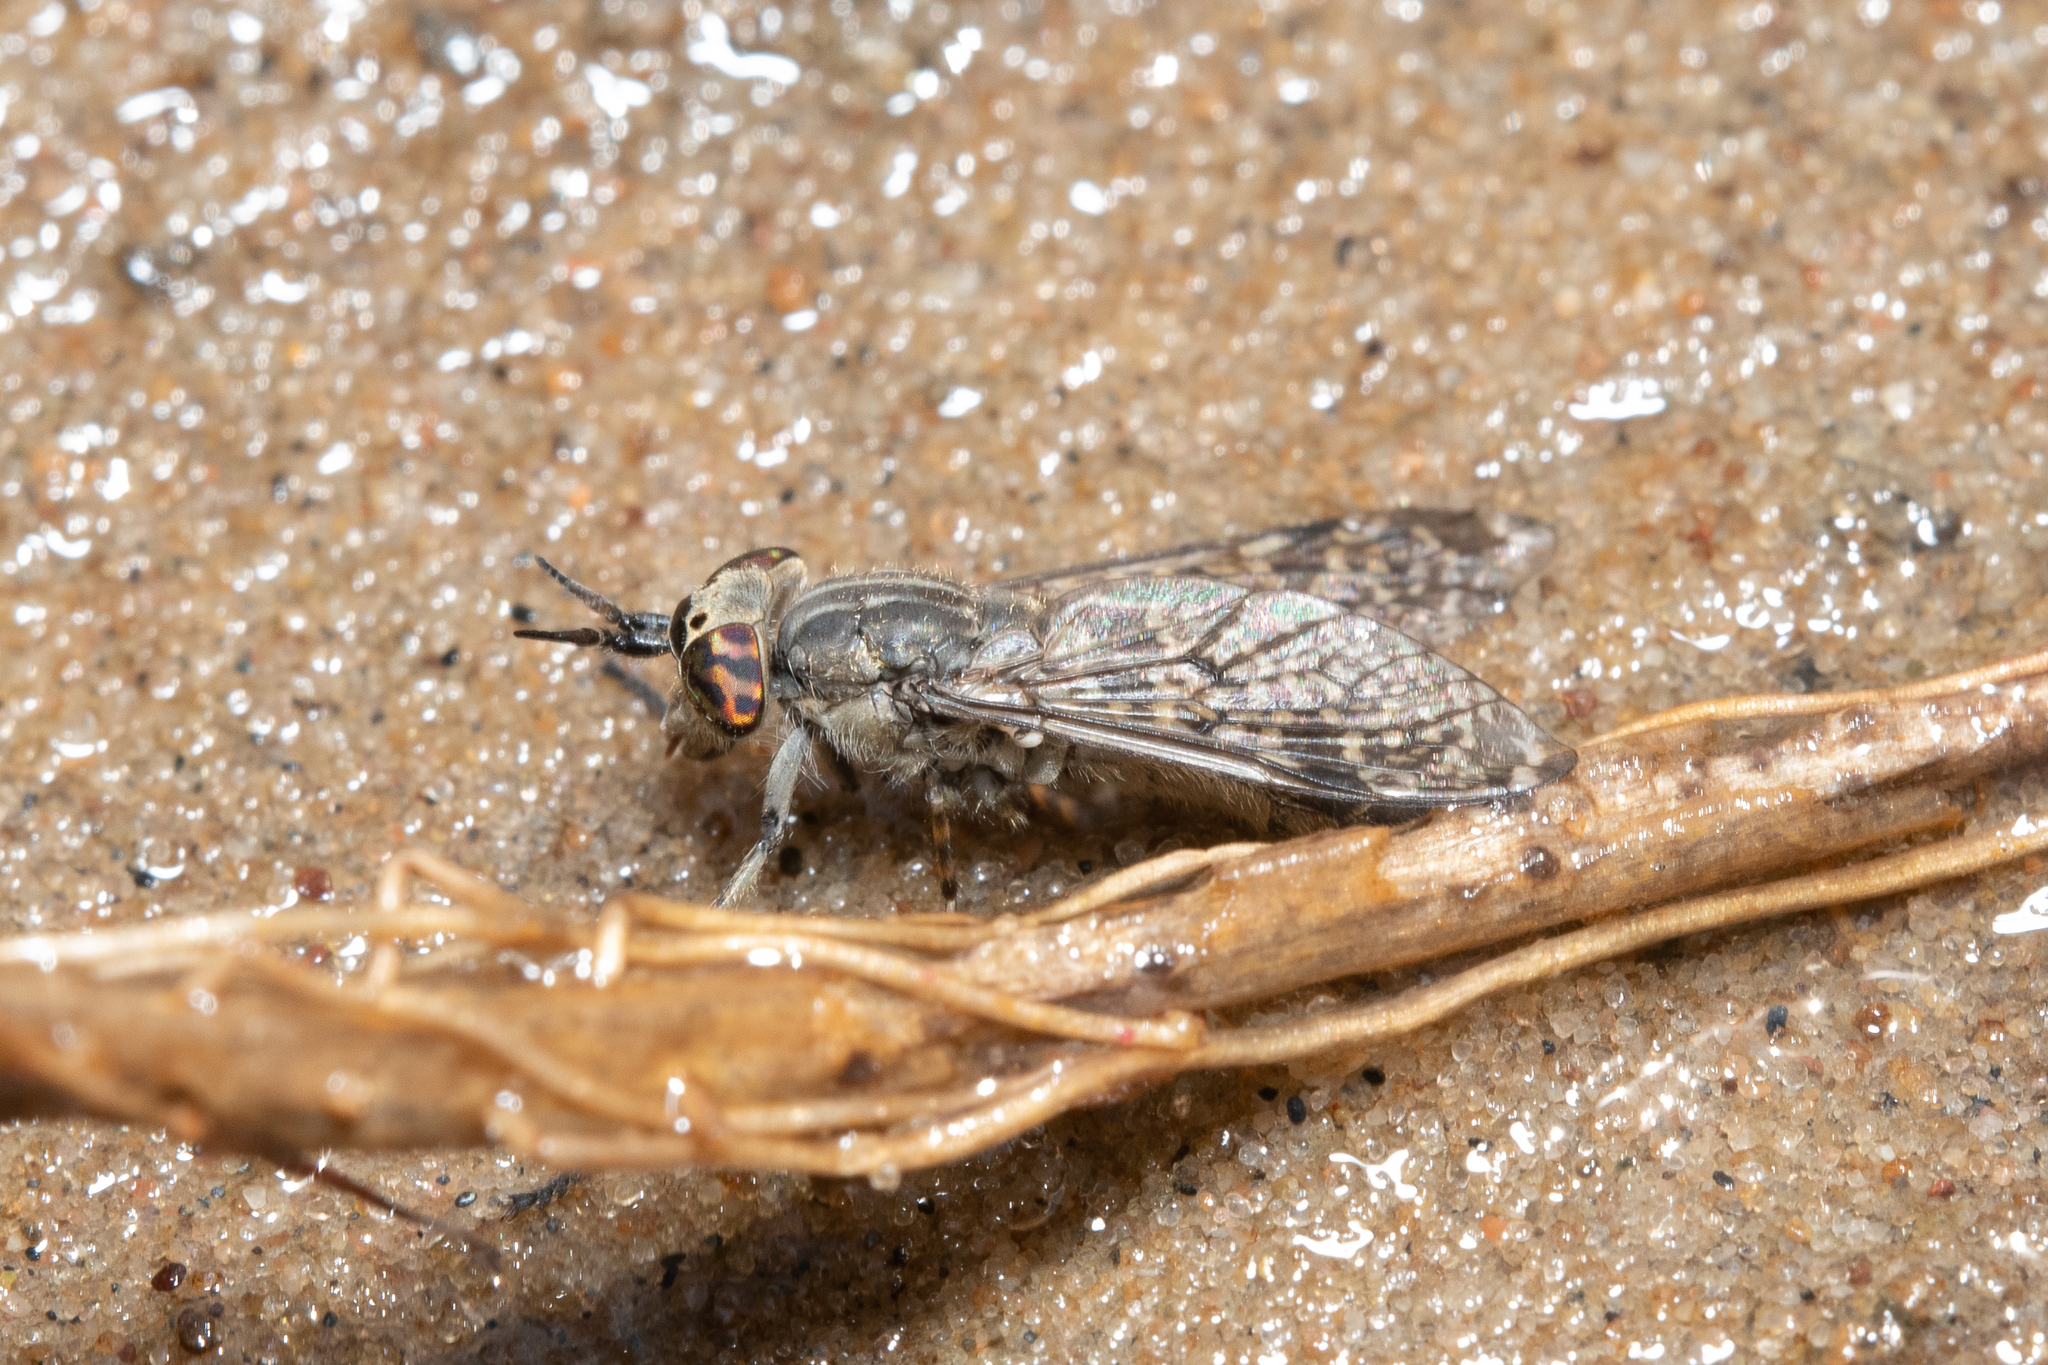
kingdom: Animalia
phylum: Arthropoda
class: Insecta
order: Diptera
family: Tabanidae
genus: Haematopota
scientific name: Haematopota pluvialis
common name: Common horse fly
